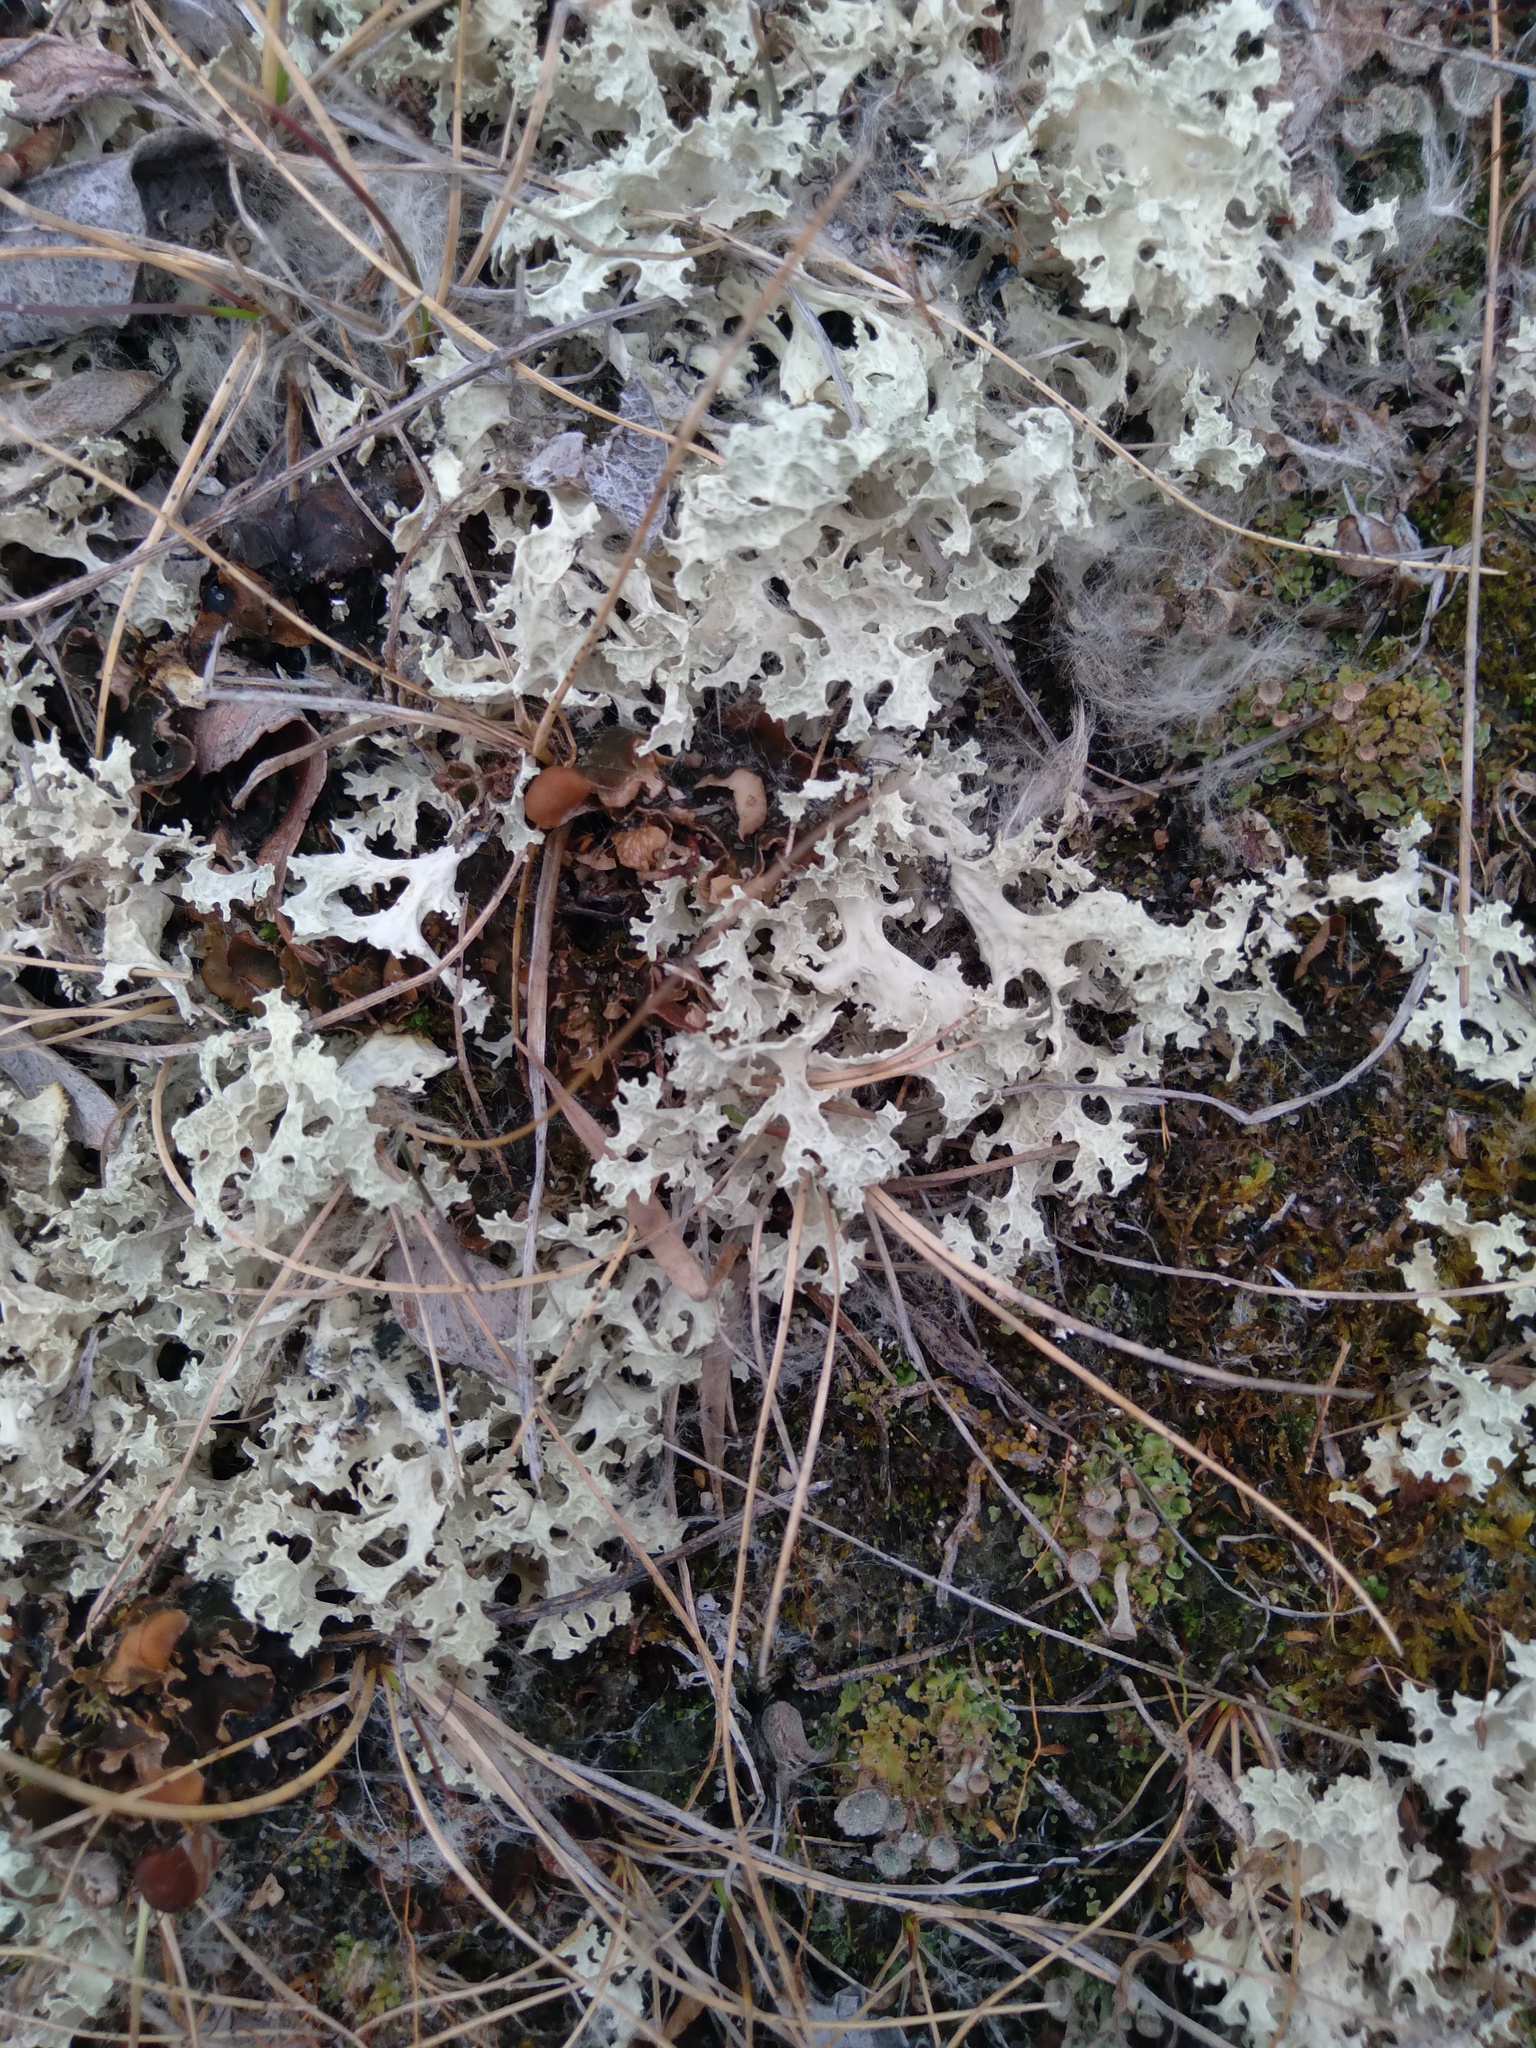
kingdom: Fungi
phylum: Ascomycota
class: Lecanoromycetes
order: Lecanorales
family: Parmeliaceae
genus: Nephromopsis
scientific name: Nephromopsis nivalis
